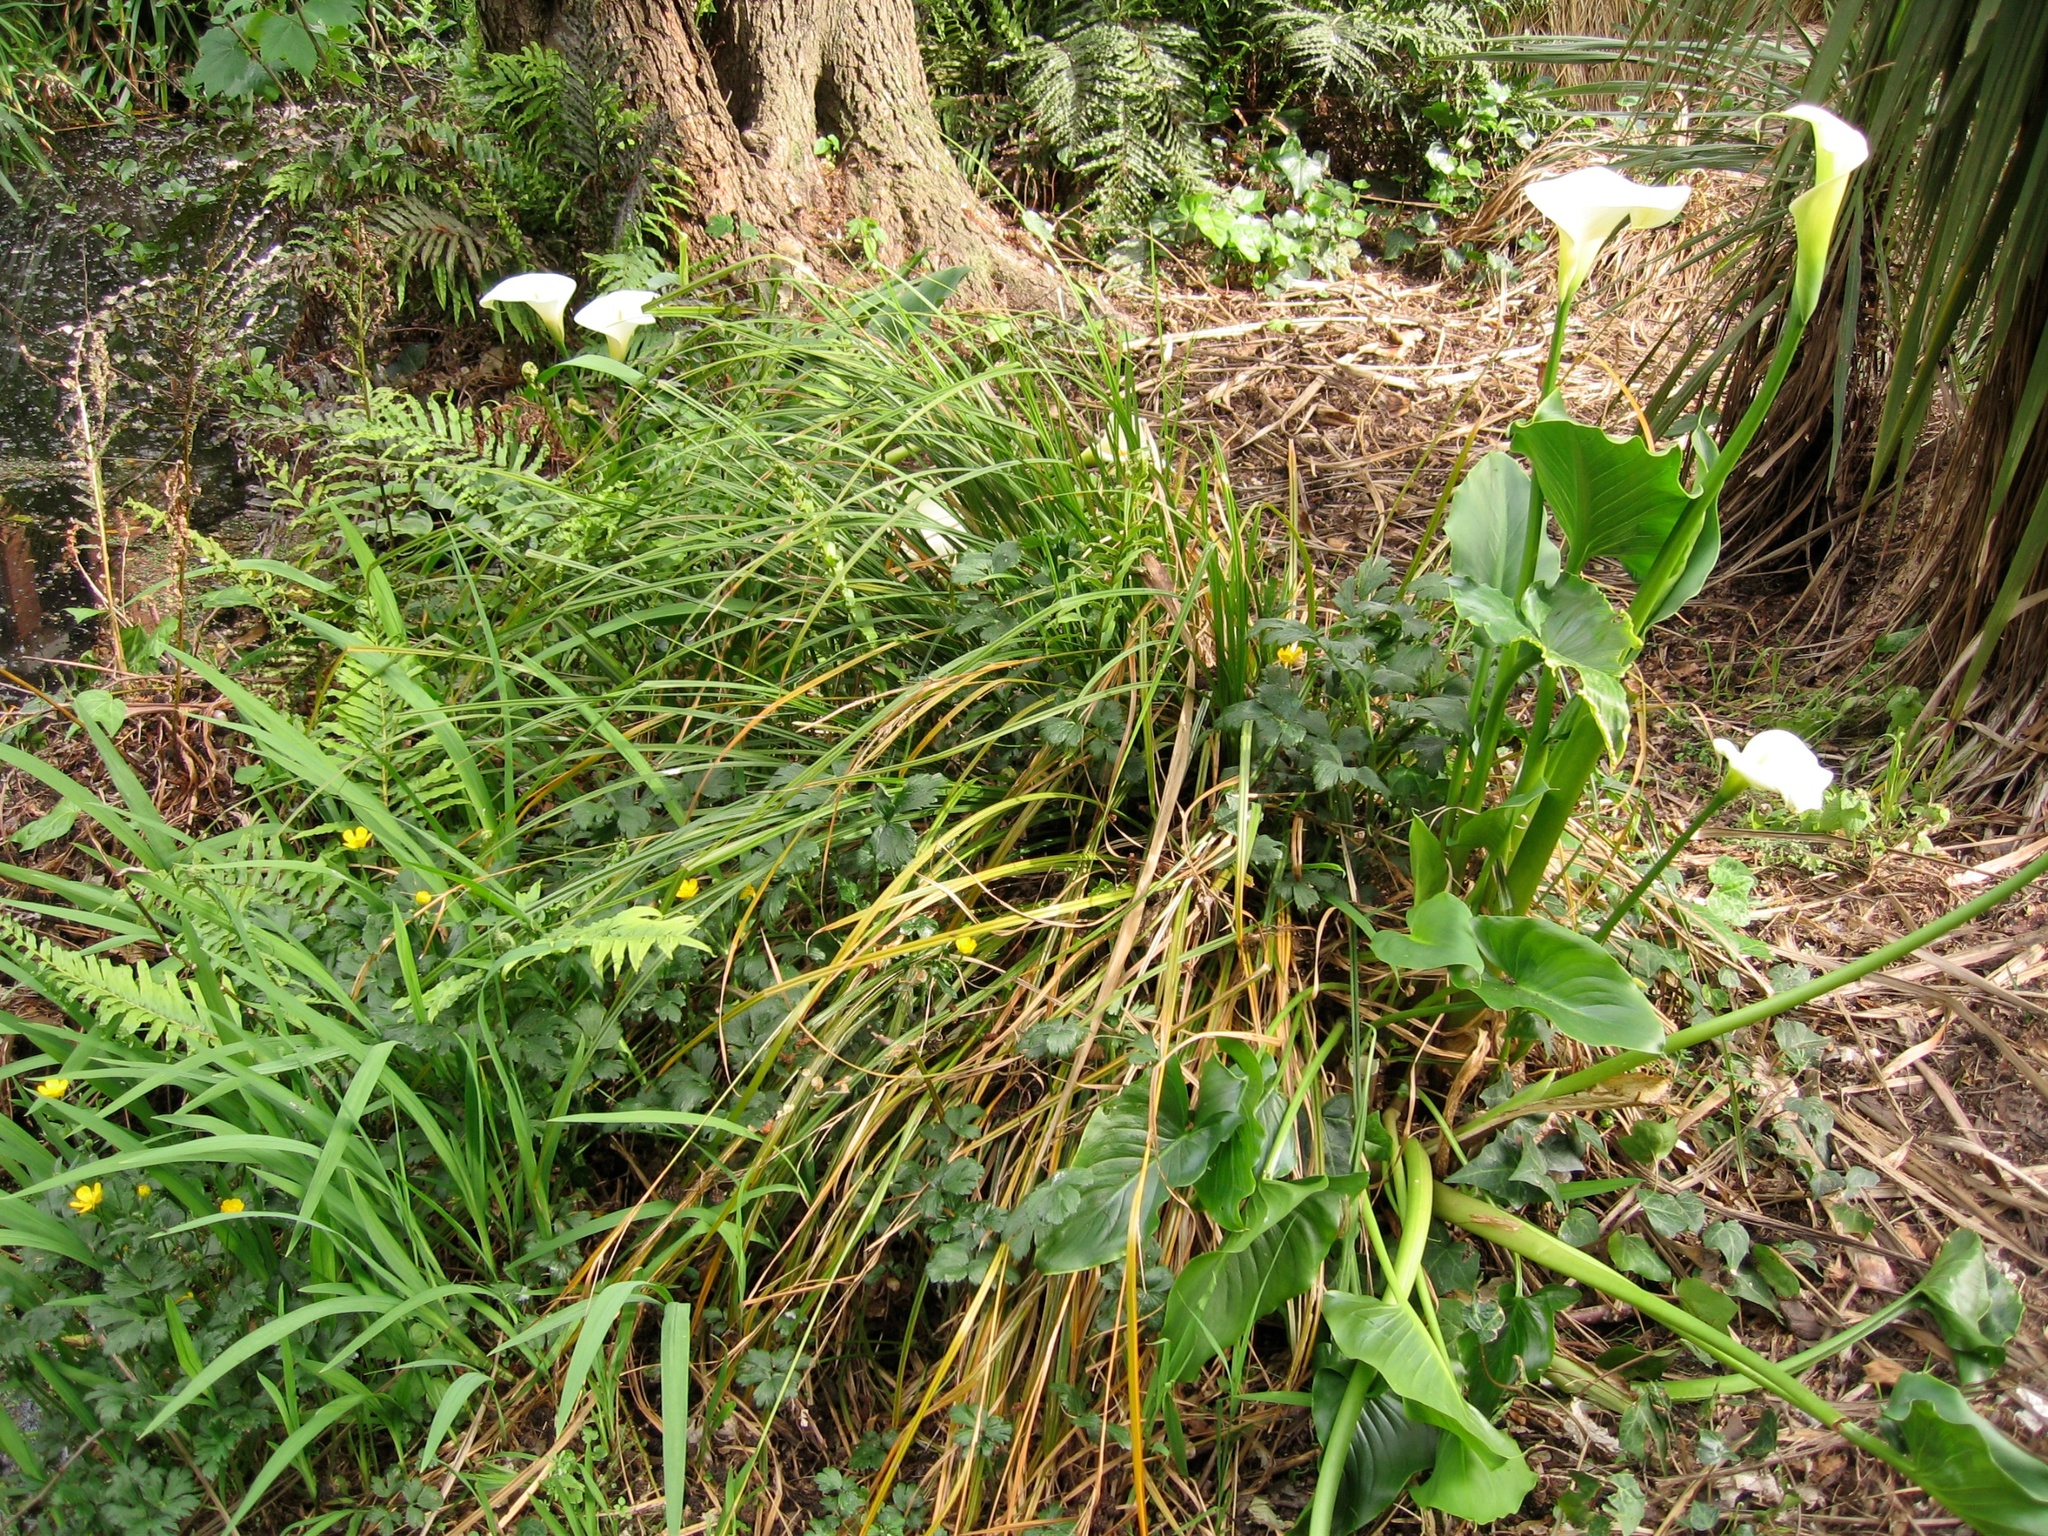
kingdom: Plantae
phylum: Tracheophyta
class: Liliopsida
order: Alismatales
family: Araceae
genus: Zantedeschia
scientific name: Zantedeschia aethiopica
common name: Altar-lily
